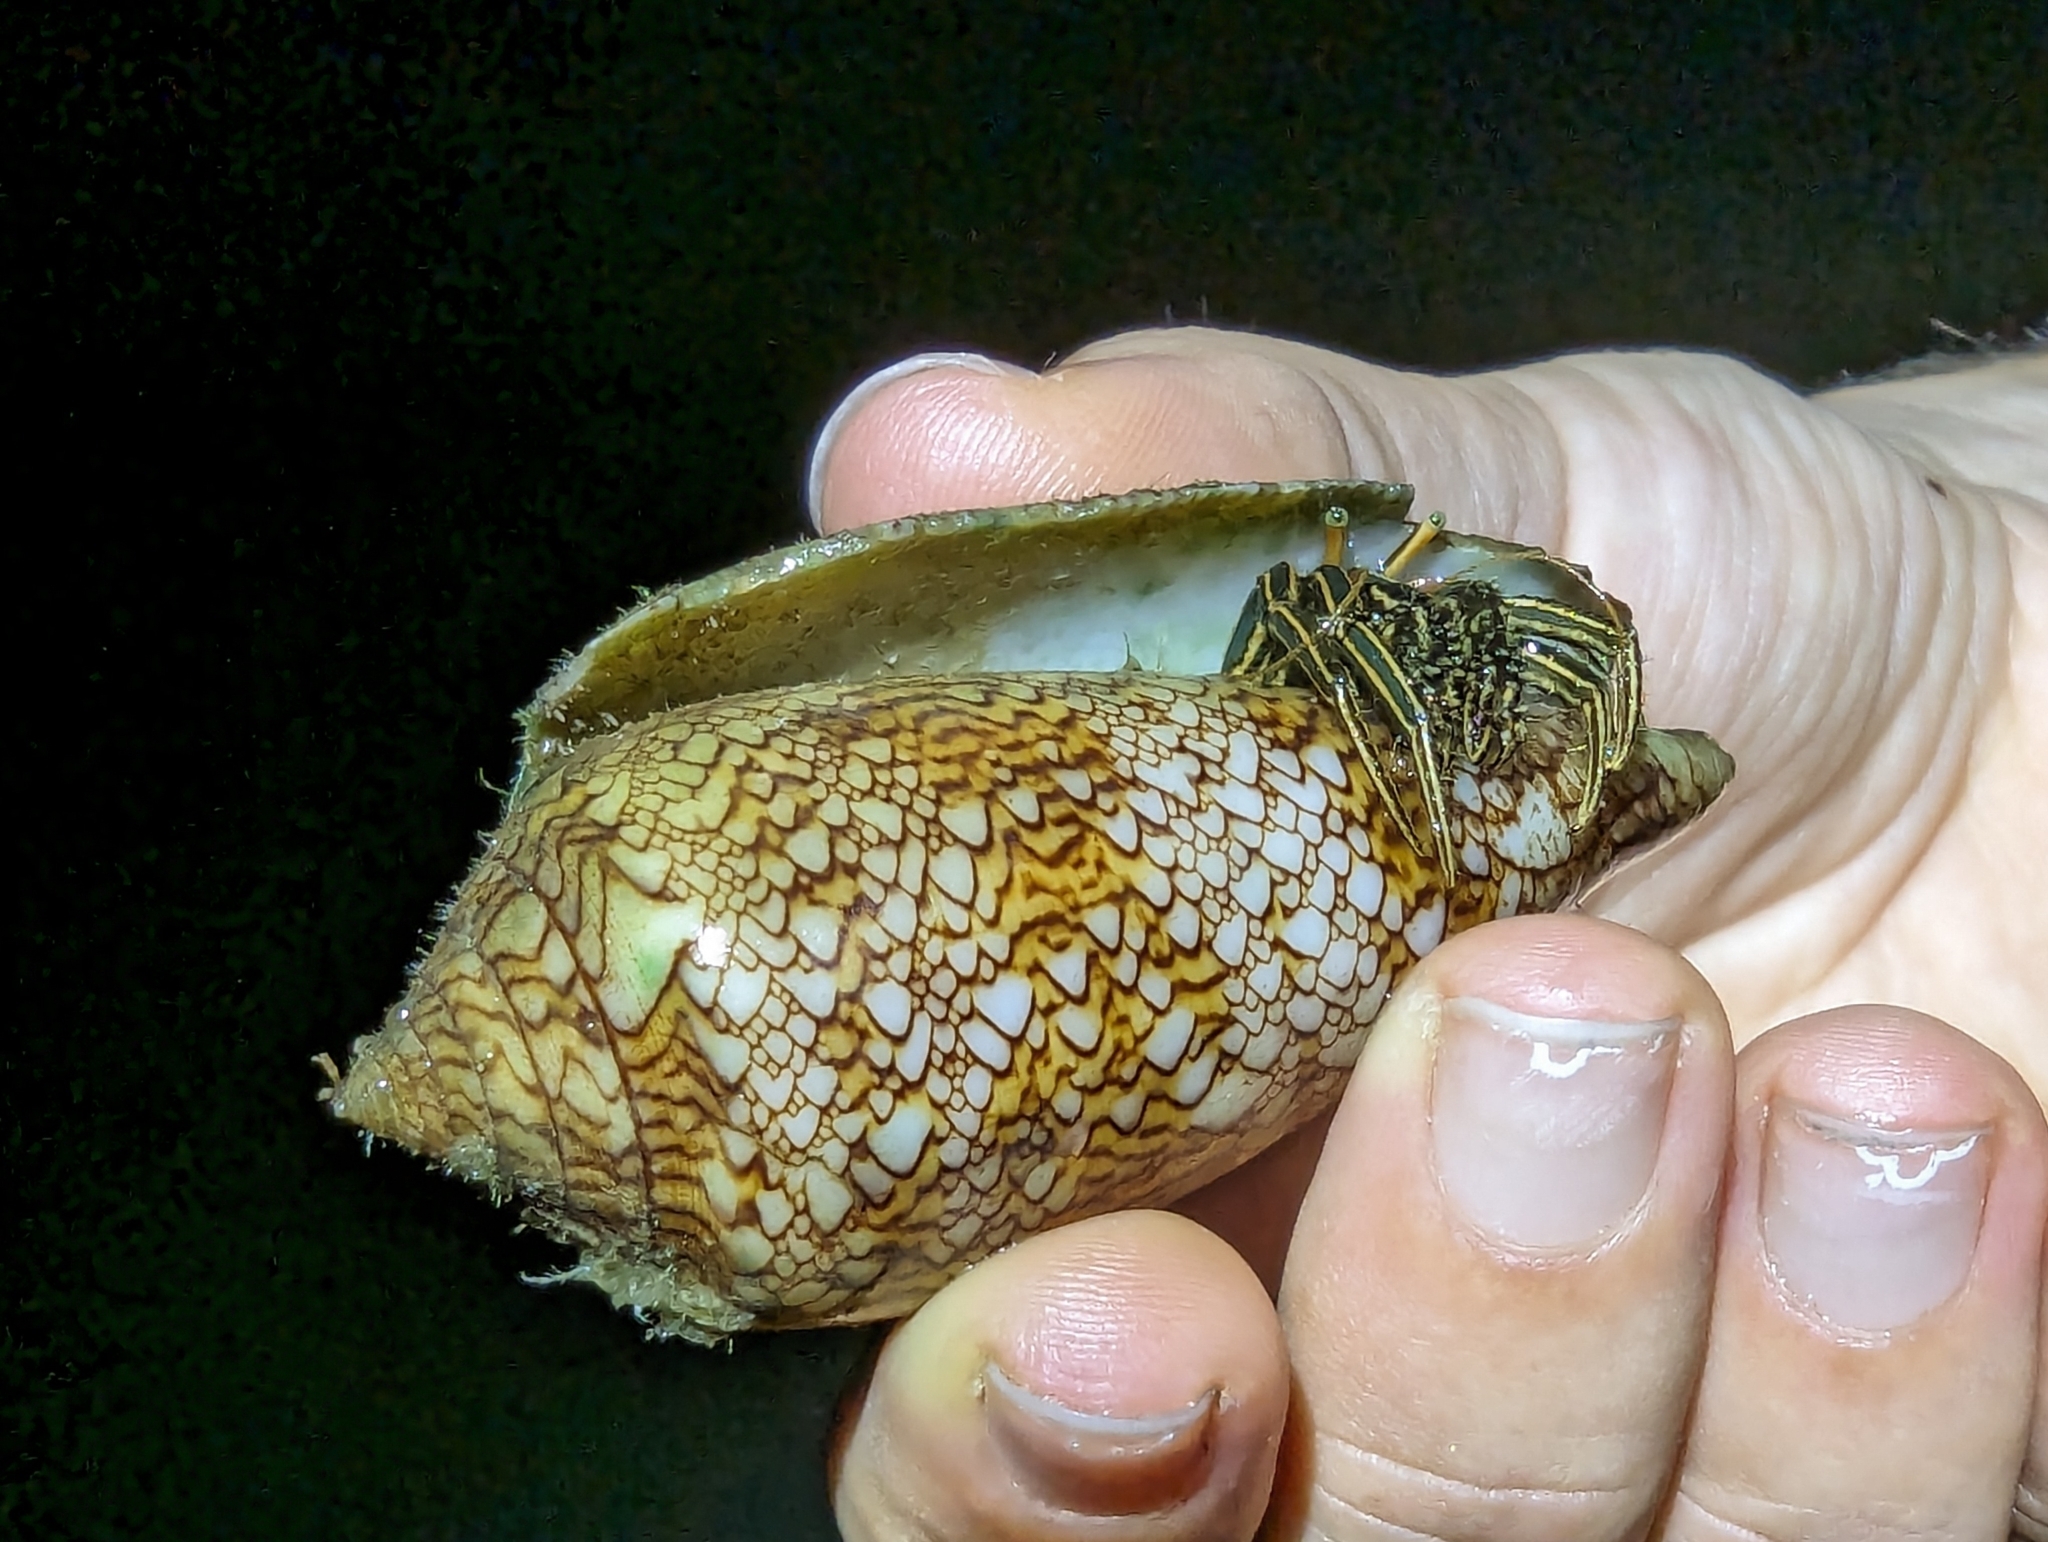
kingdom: Animalia
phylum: Arthropoda
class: Malacostraca
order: Decapoda
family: Diogenidae
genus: Clibanarius
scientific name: Clibanarius taeniatus
